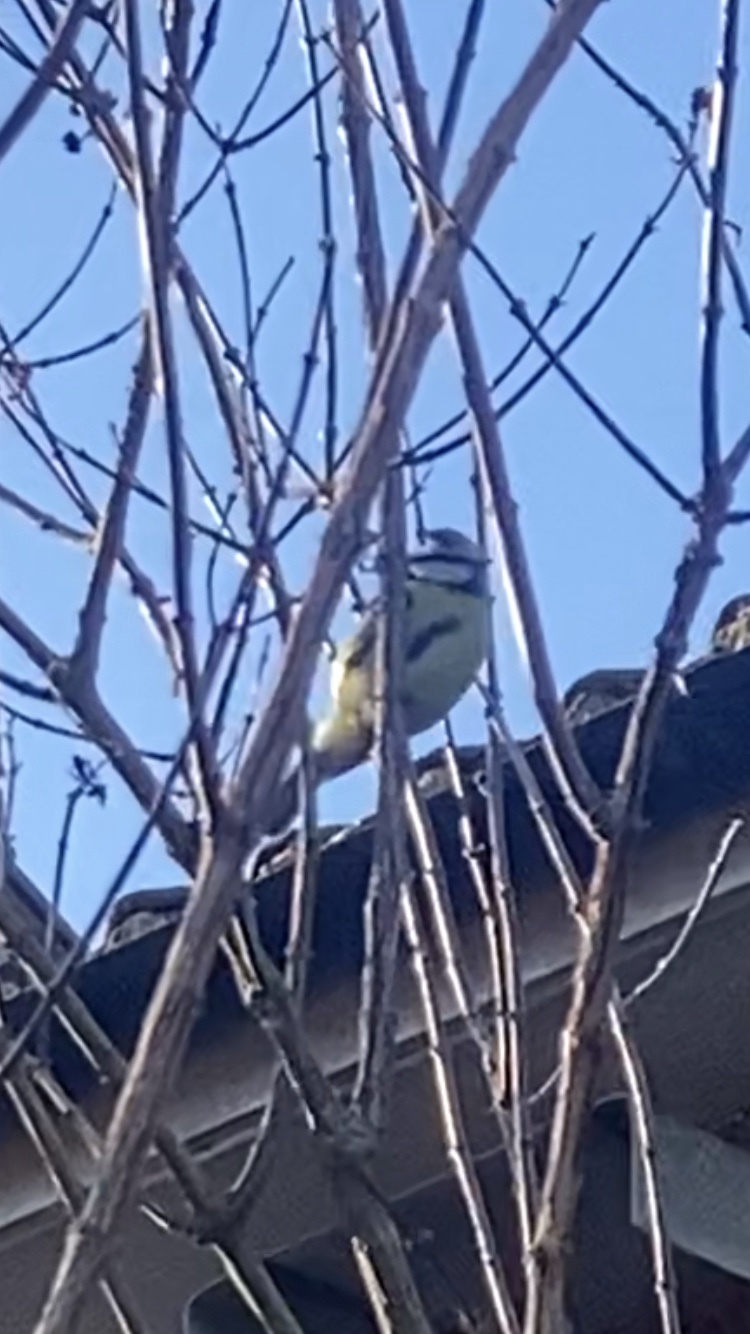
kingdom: Animalia
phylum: Chordata
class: Aves
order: Passeriformes
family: Paridae
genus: Cyanistes
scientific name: Cyanistes caeruleus
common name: Eurasian blue tit
